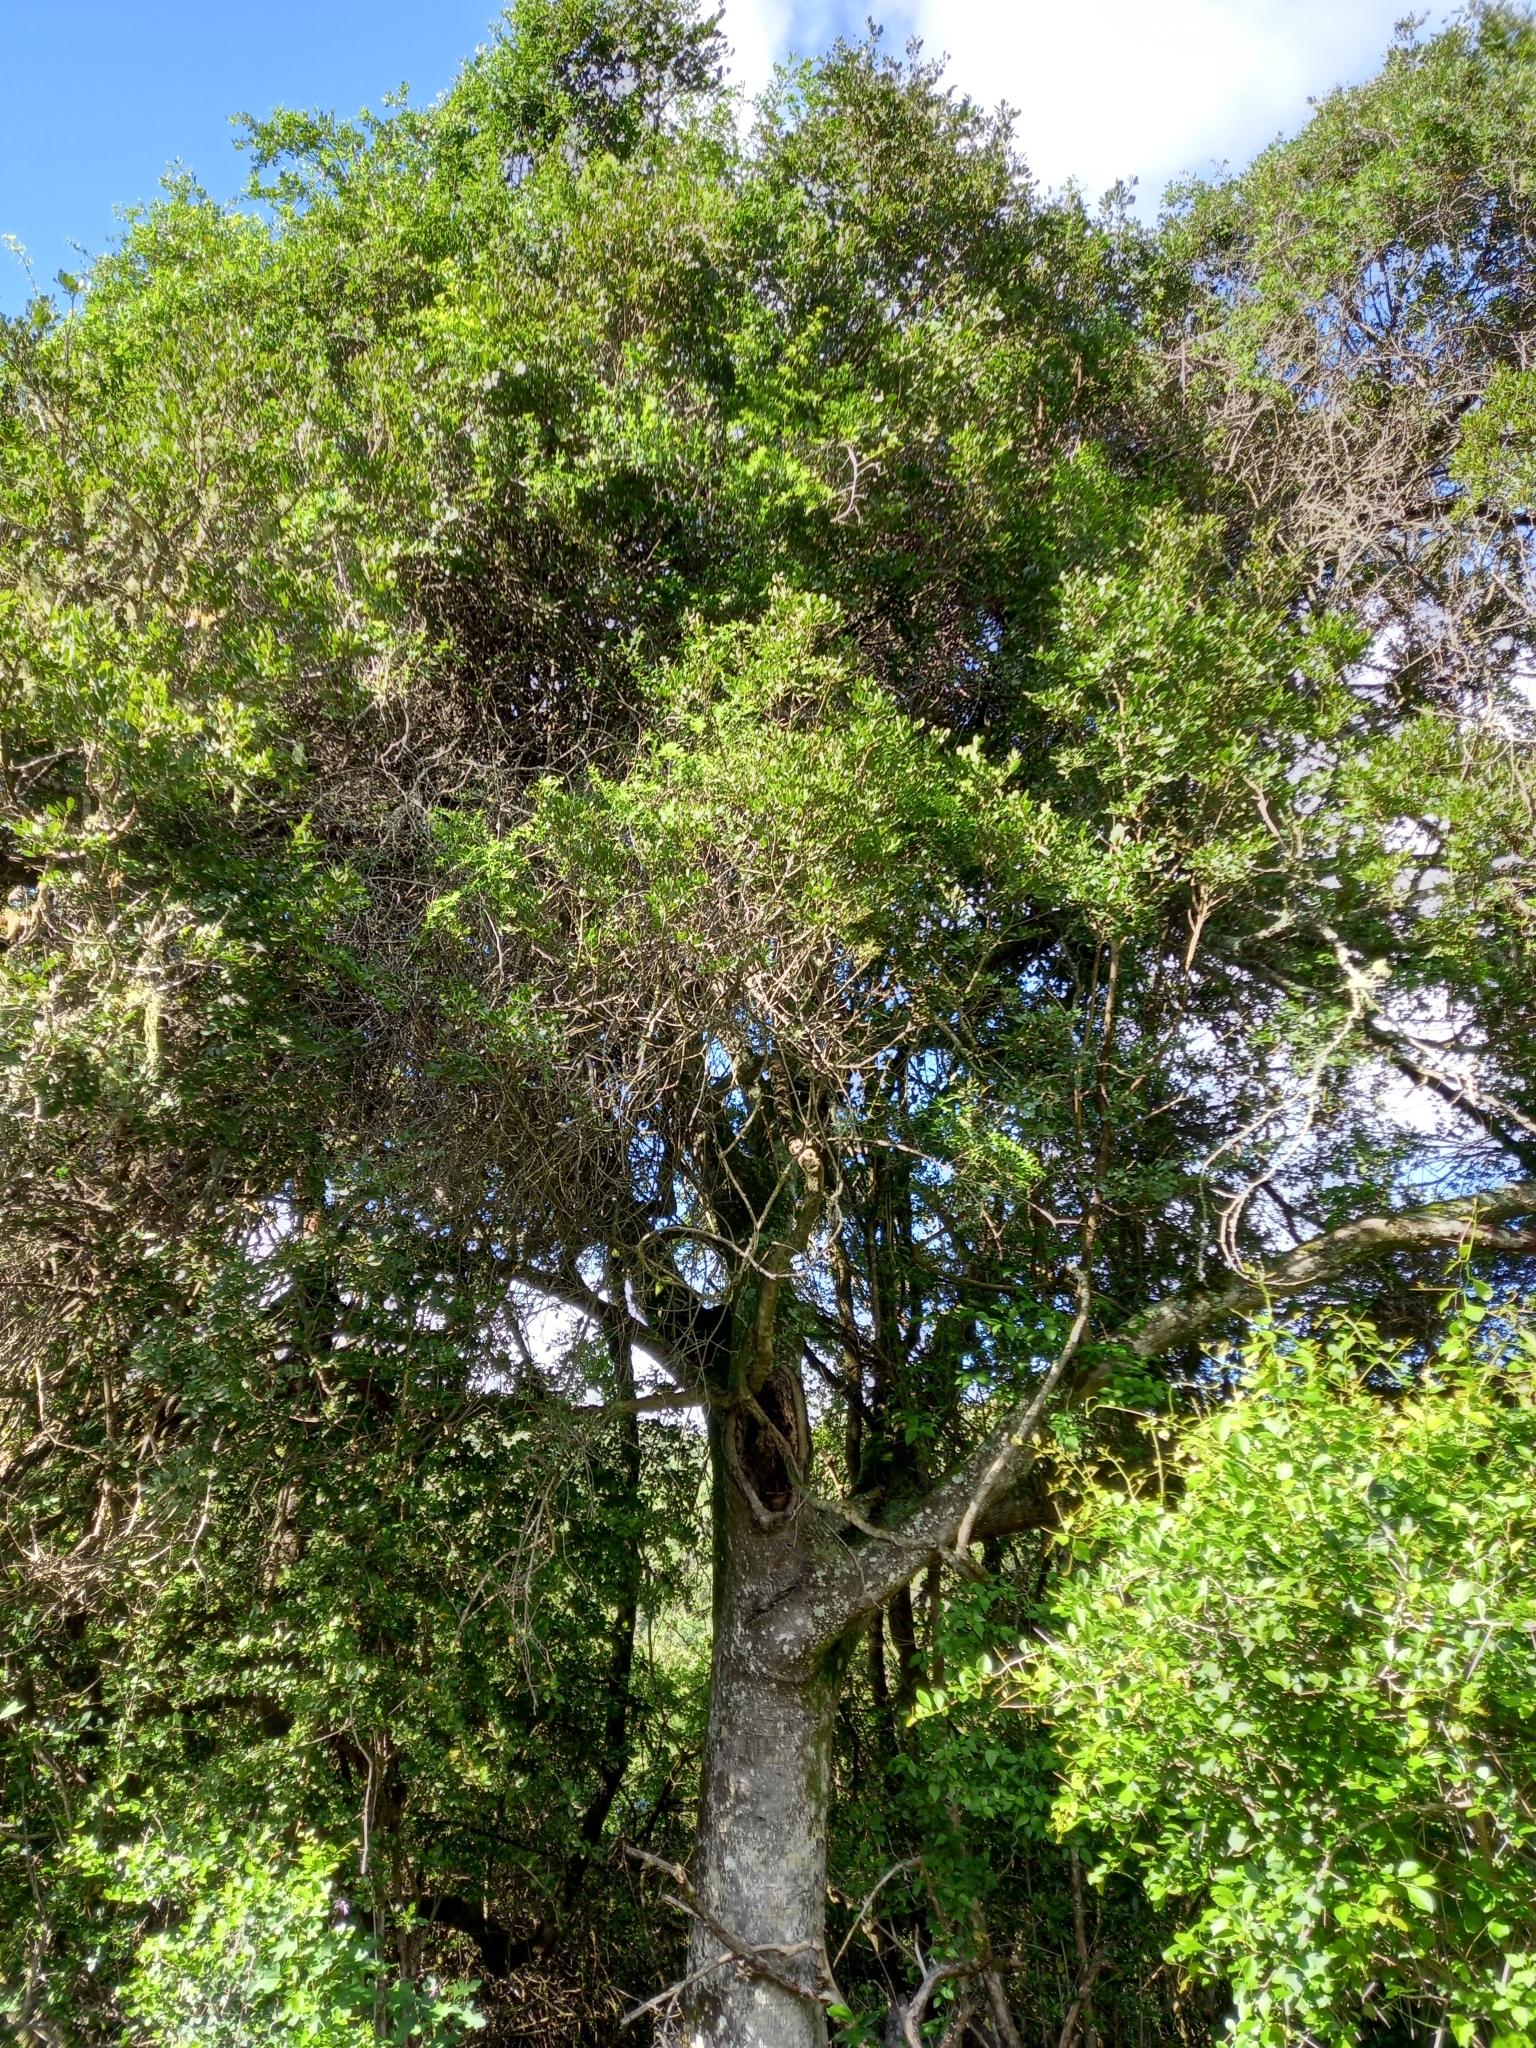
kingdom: Plantae
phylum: Tracheophyta
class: Magnoliopsida
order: Fabales
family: Fabaceae
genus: Schotia
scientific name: Schotia latifolia
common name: Bush boer-bean
